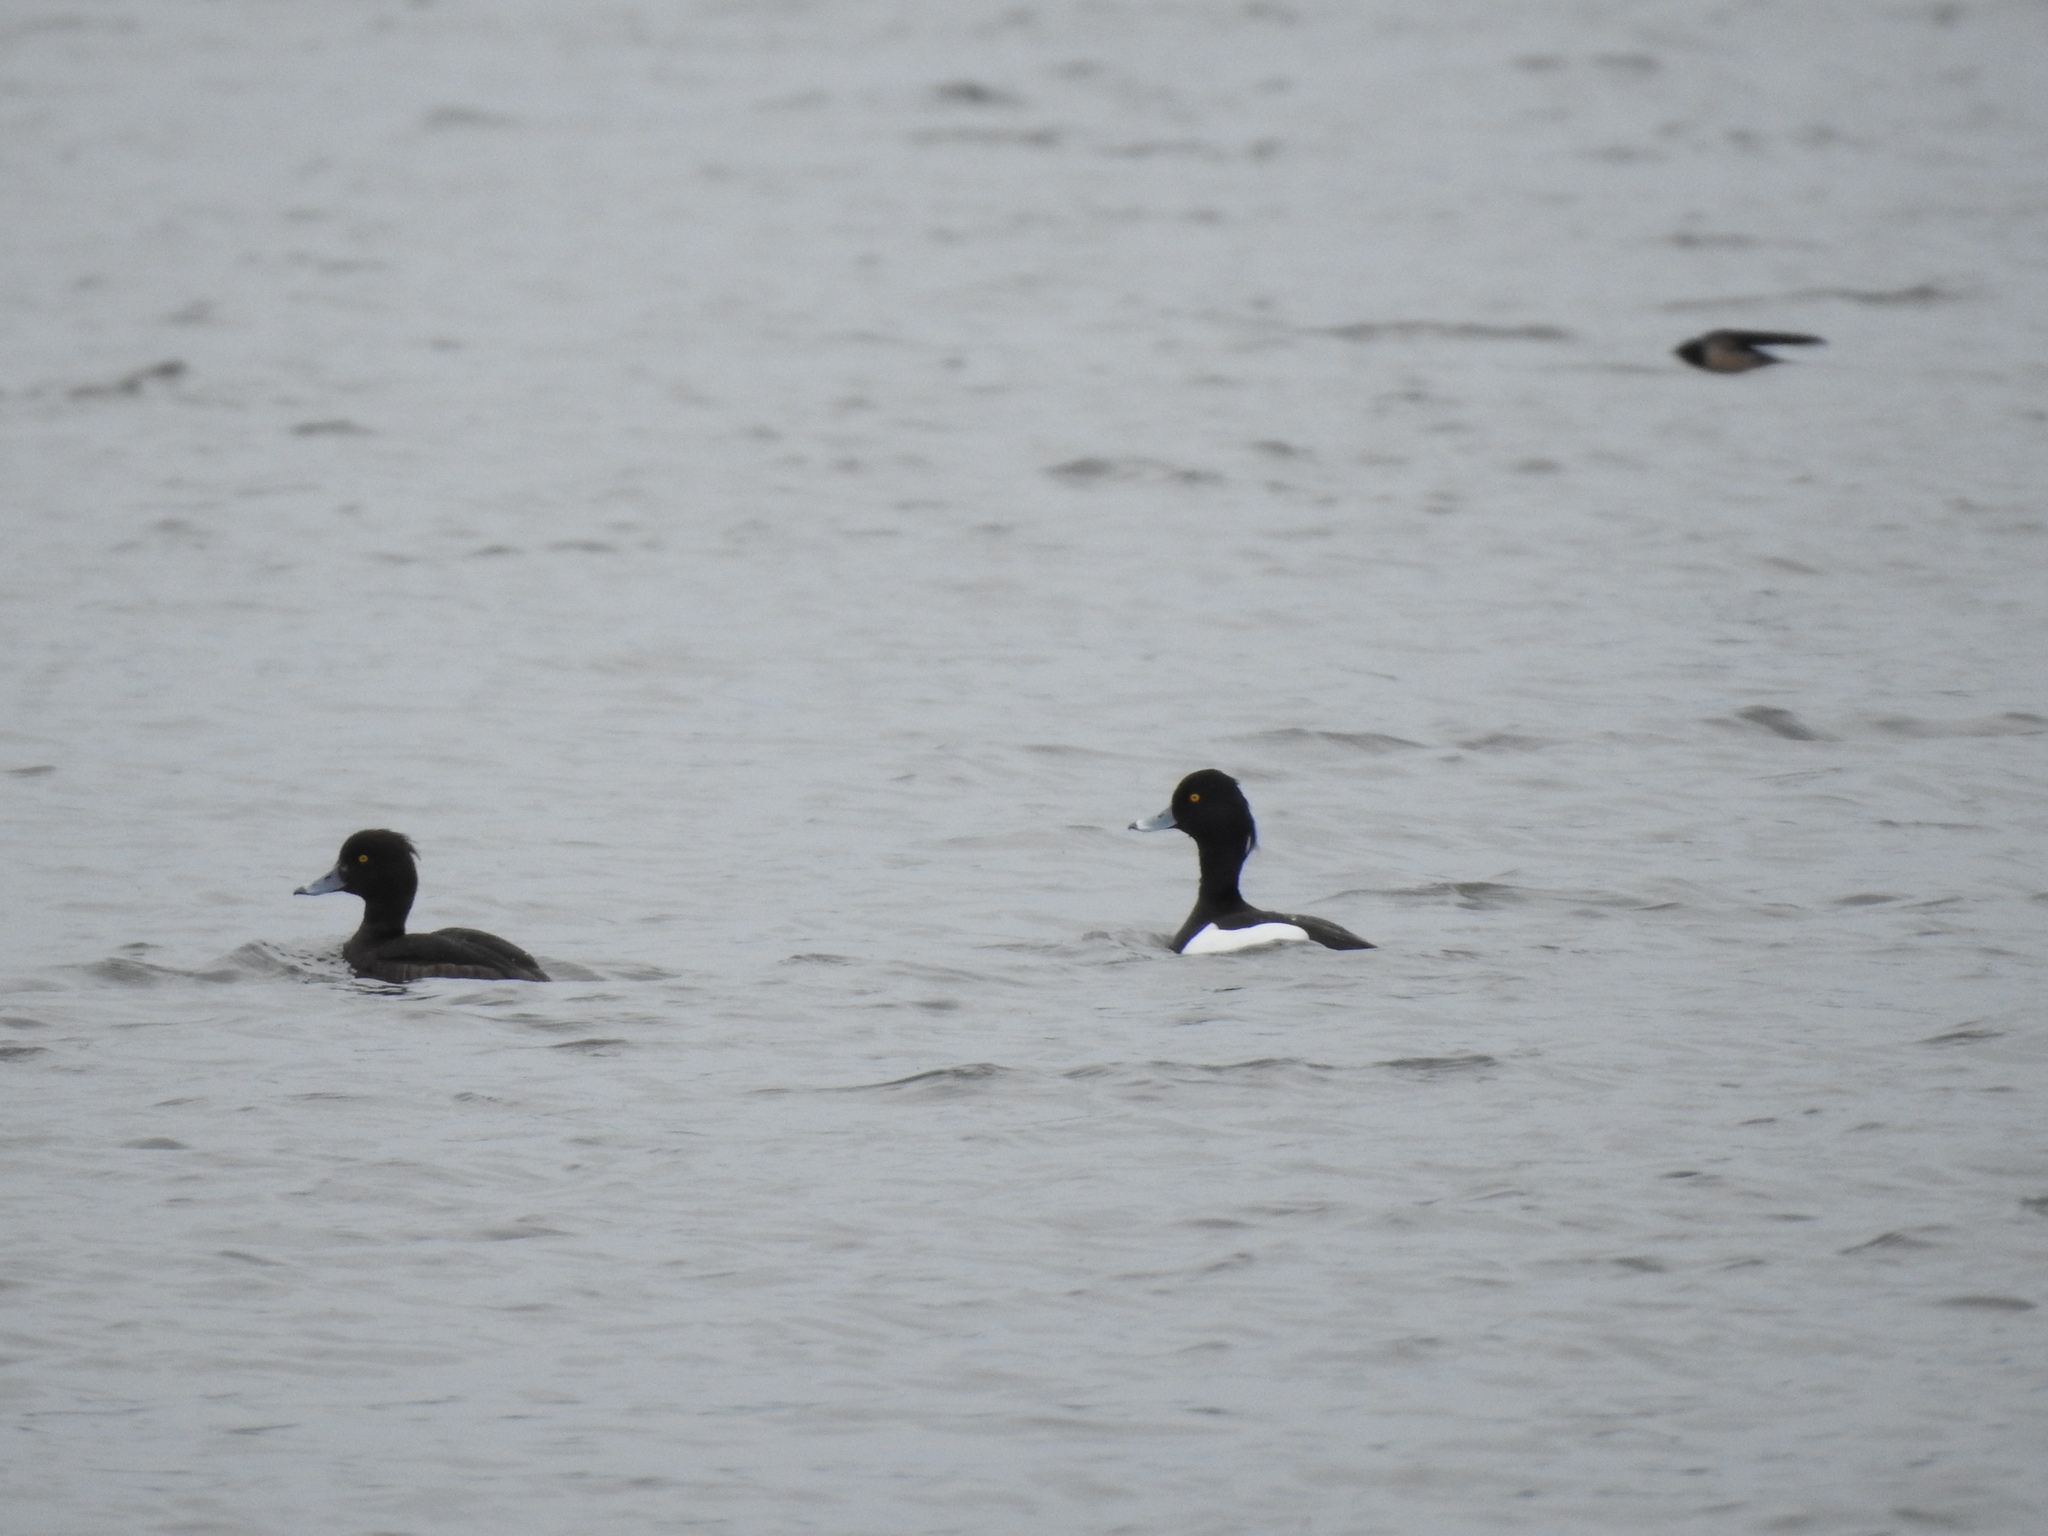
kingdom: Animalia
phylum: Chordata
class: Aves
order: Anseriformes
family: Anatidae
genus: Aythya
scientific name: Aythya fuligula
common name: Tufted duck
